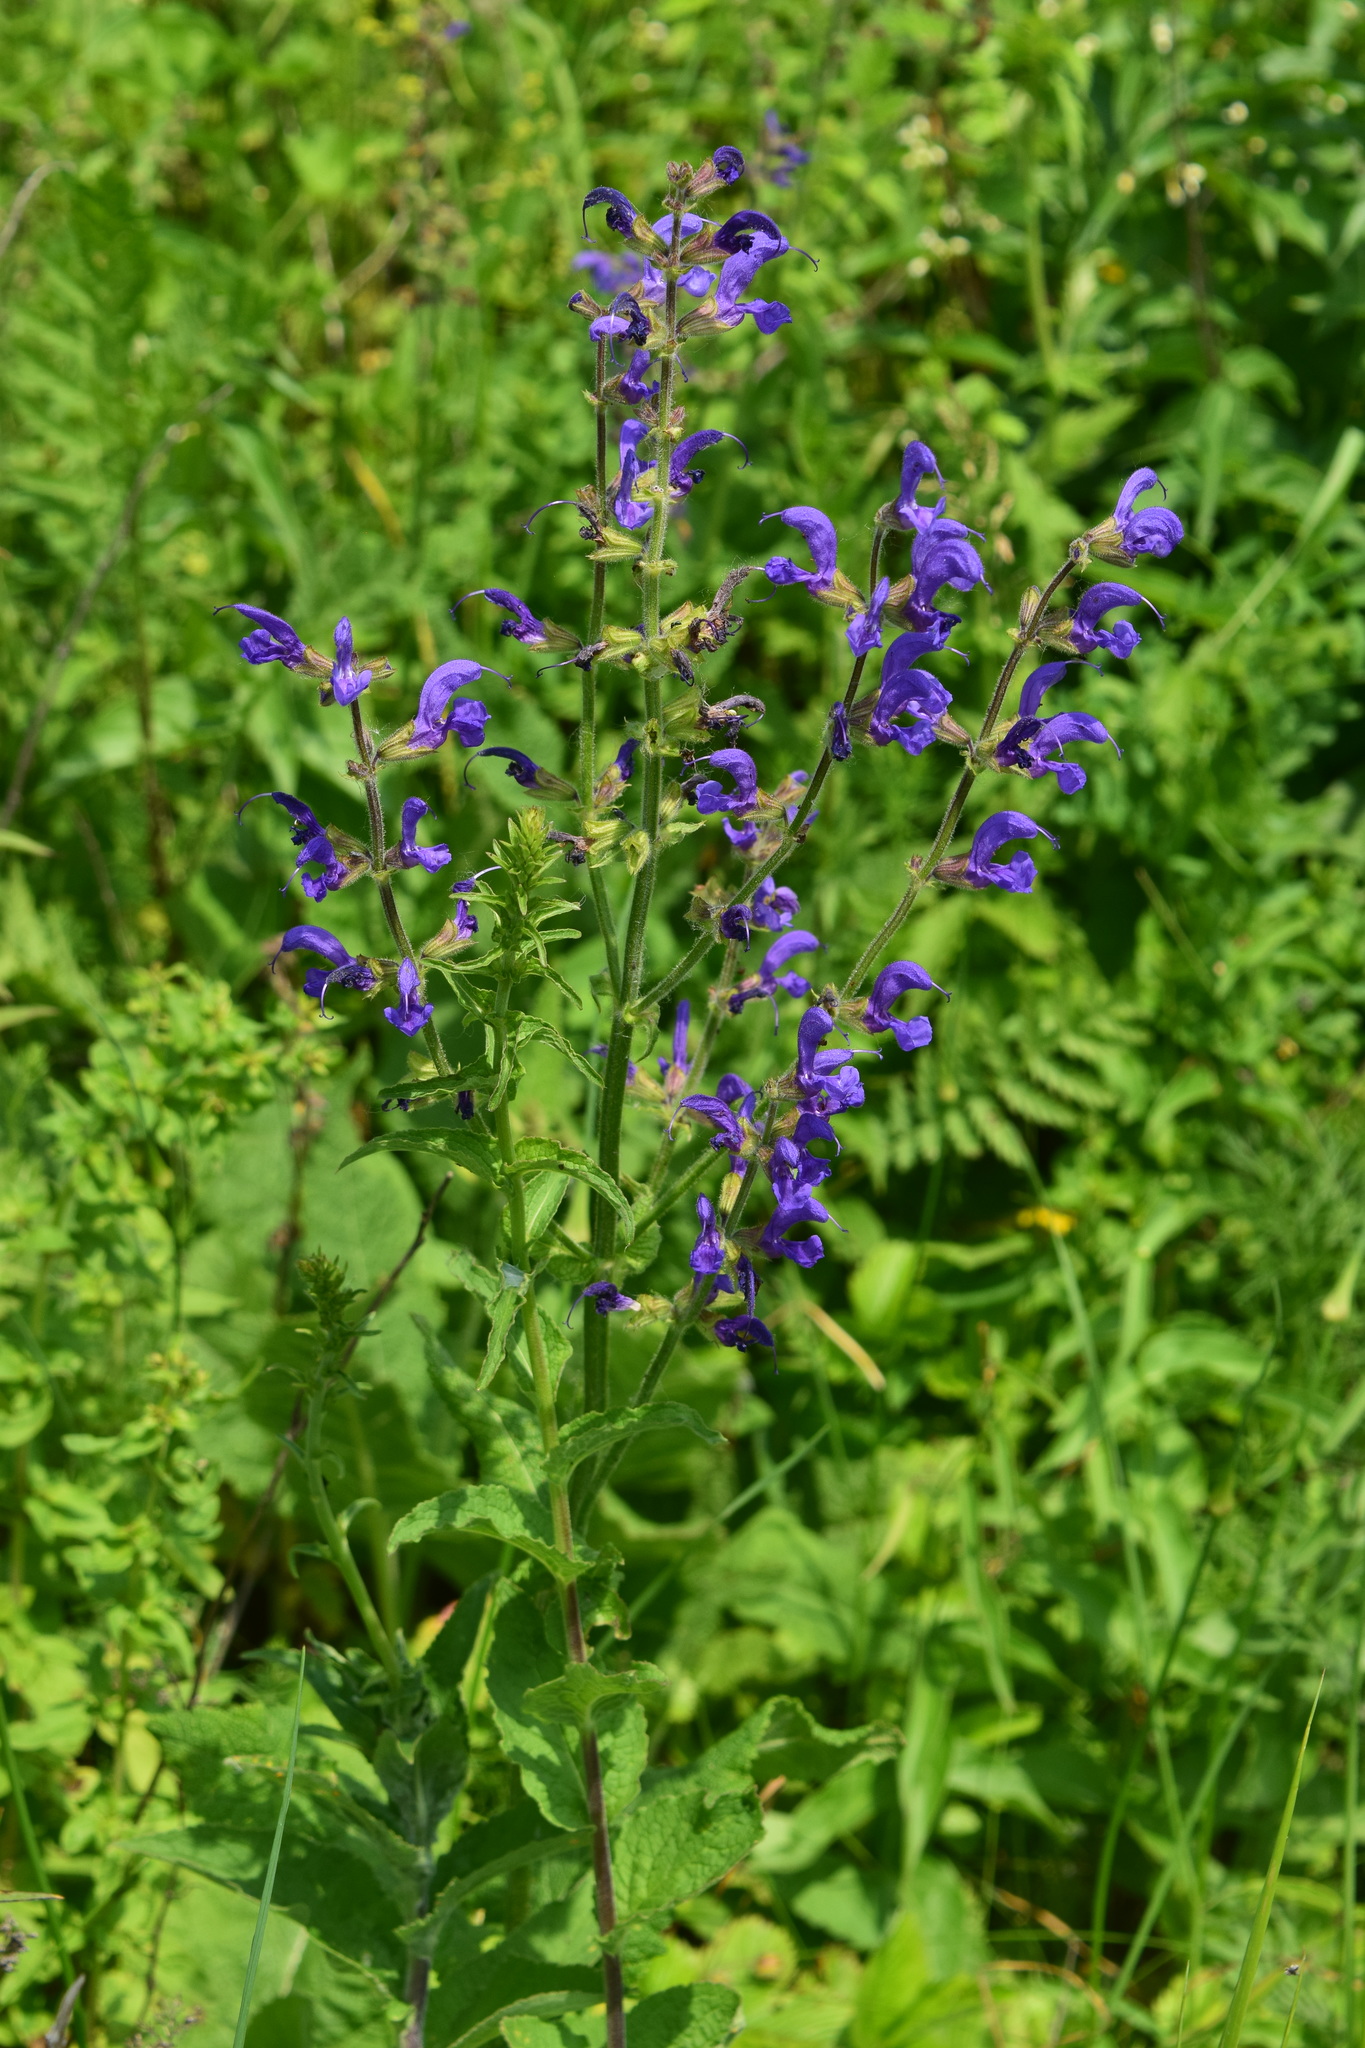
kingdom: Plantae
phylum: Tracheophyta
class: Magnoliopsida
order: Lamiales
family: Lamiaceae
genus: Salvia
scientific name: Salvia pratensis
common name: Meadow sage
